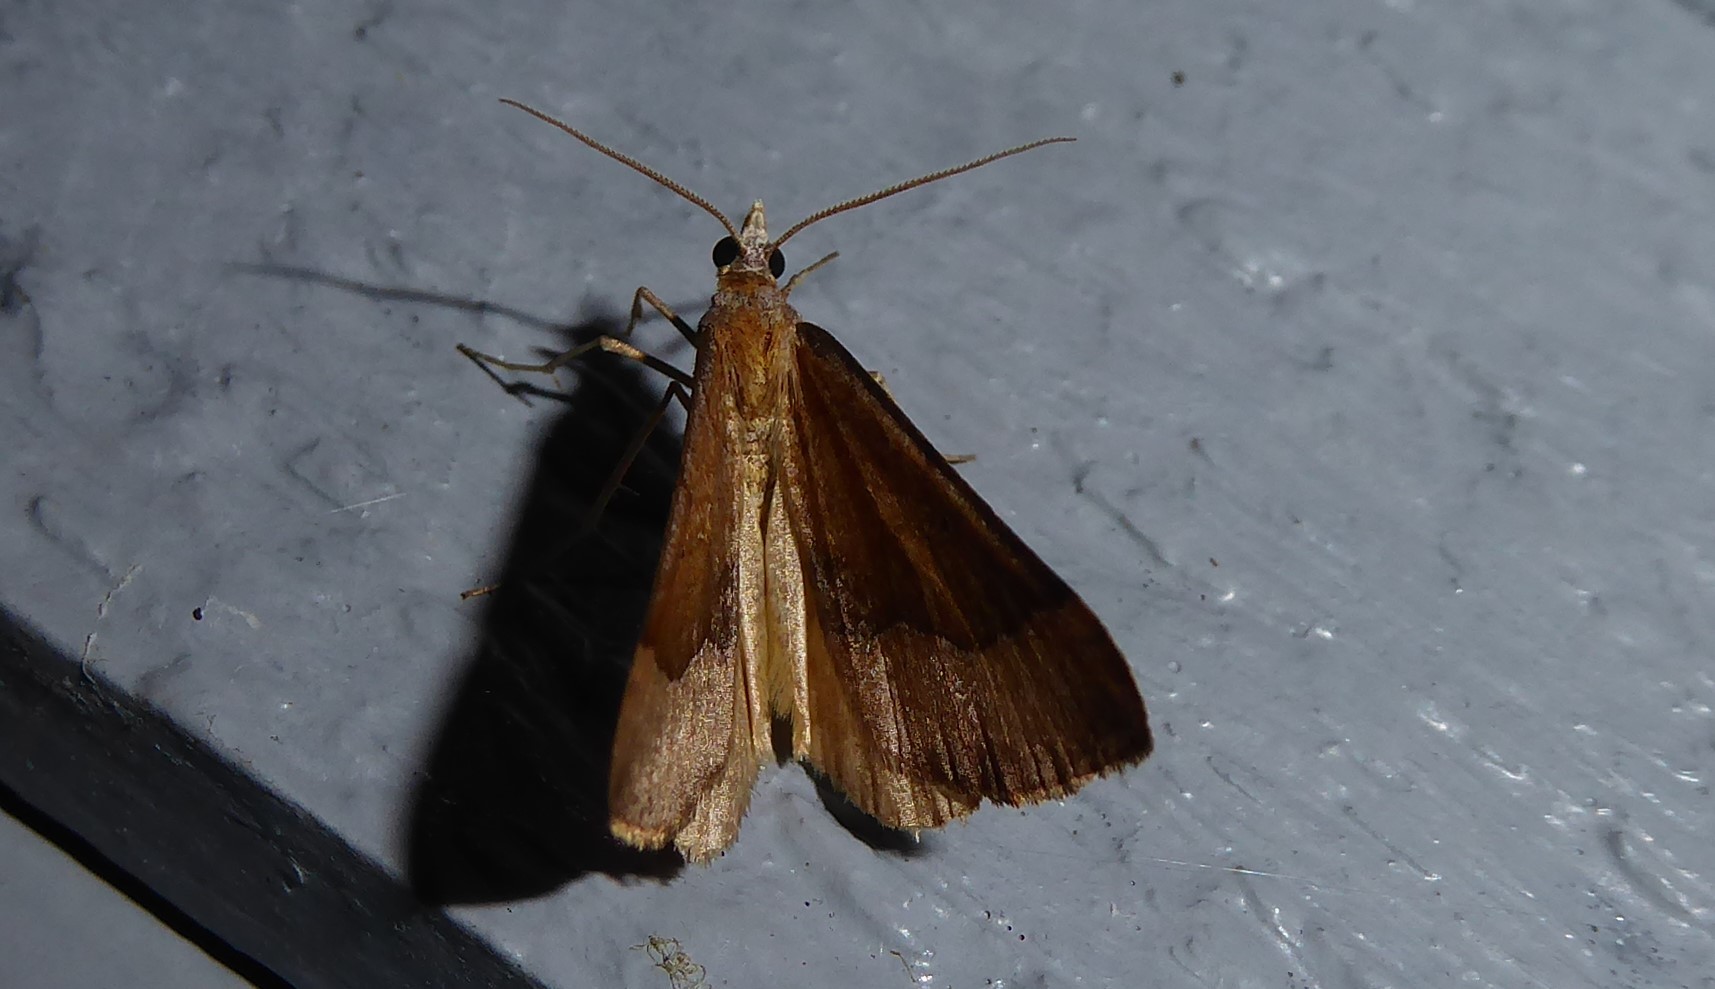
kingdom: Animalia
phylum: Arthropoda
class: Insecta
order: Lepidoptera
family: Geometridae
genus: Anachloris
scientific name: Anachloris subochraria
